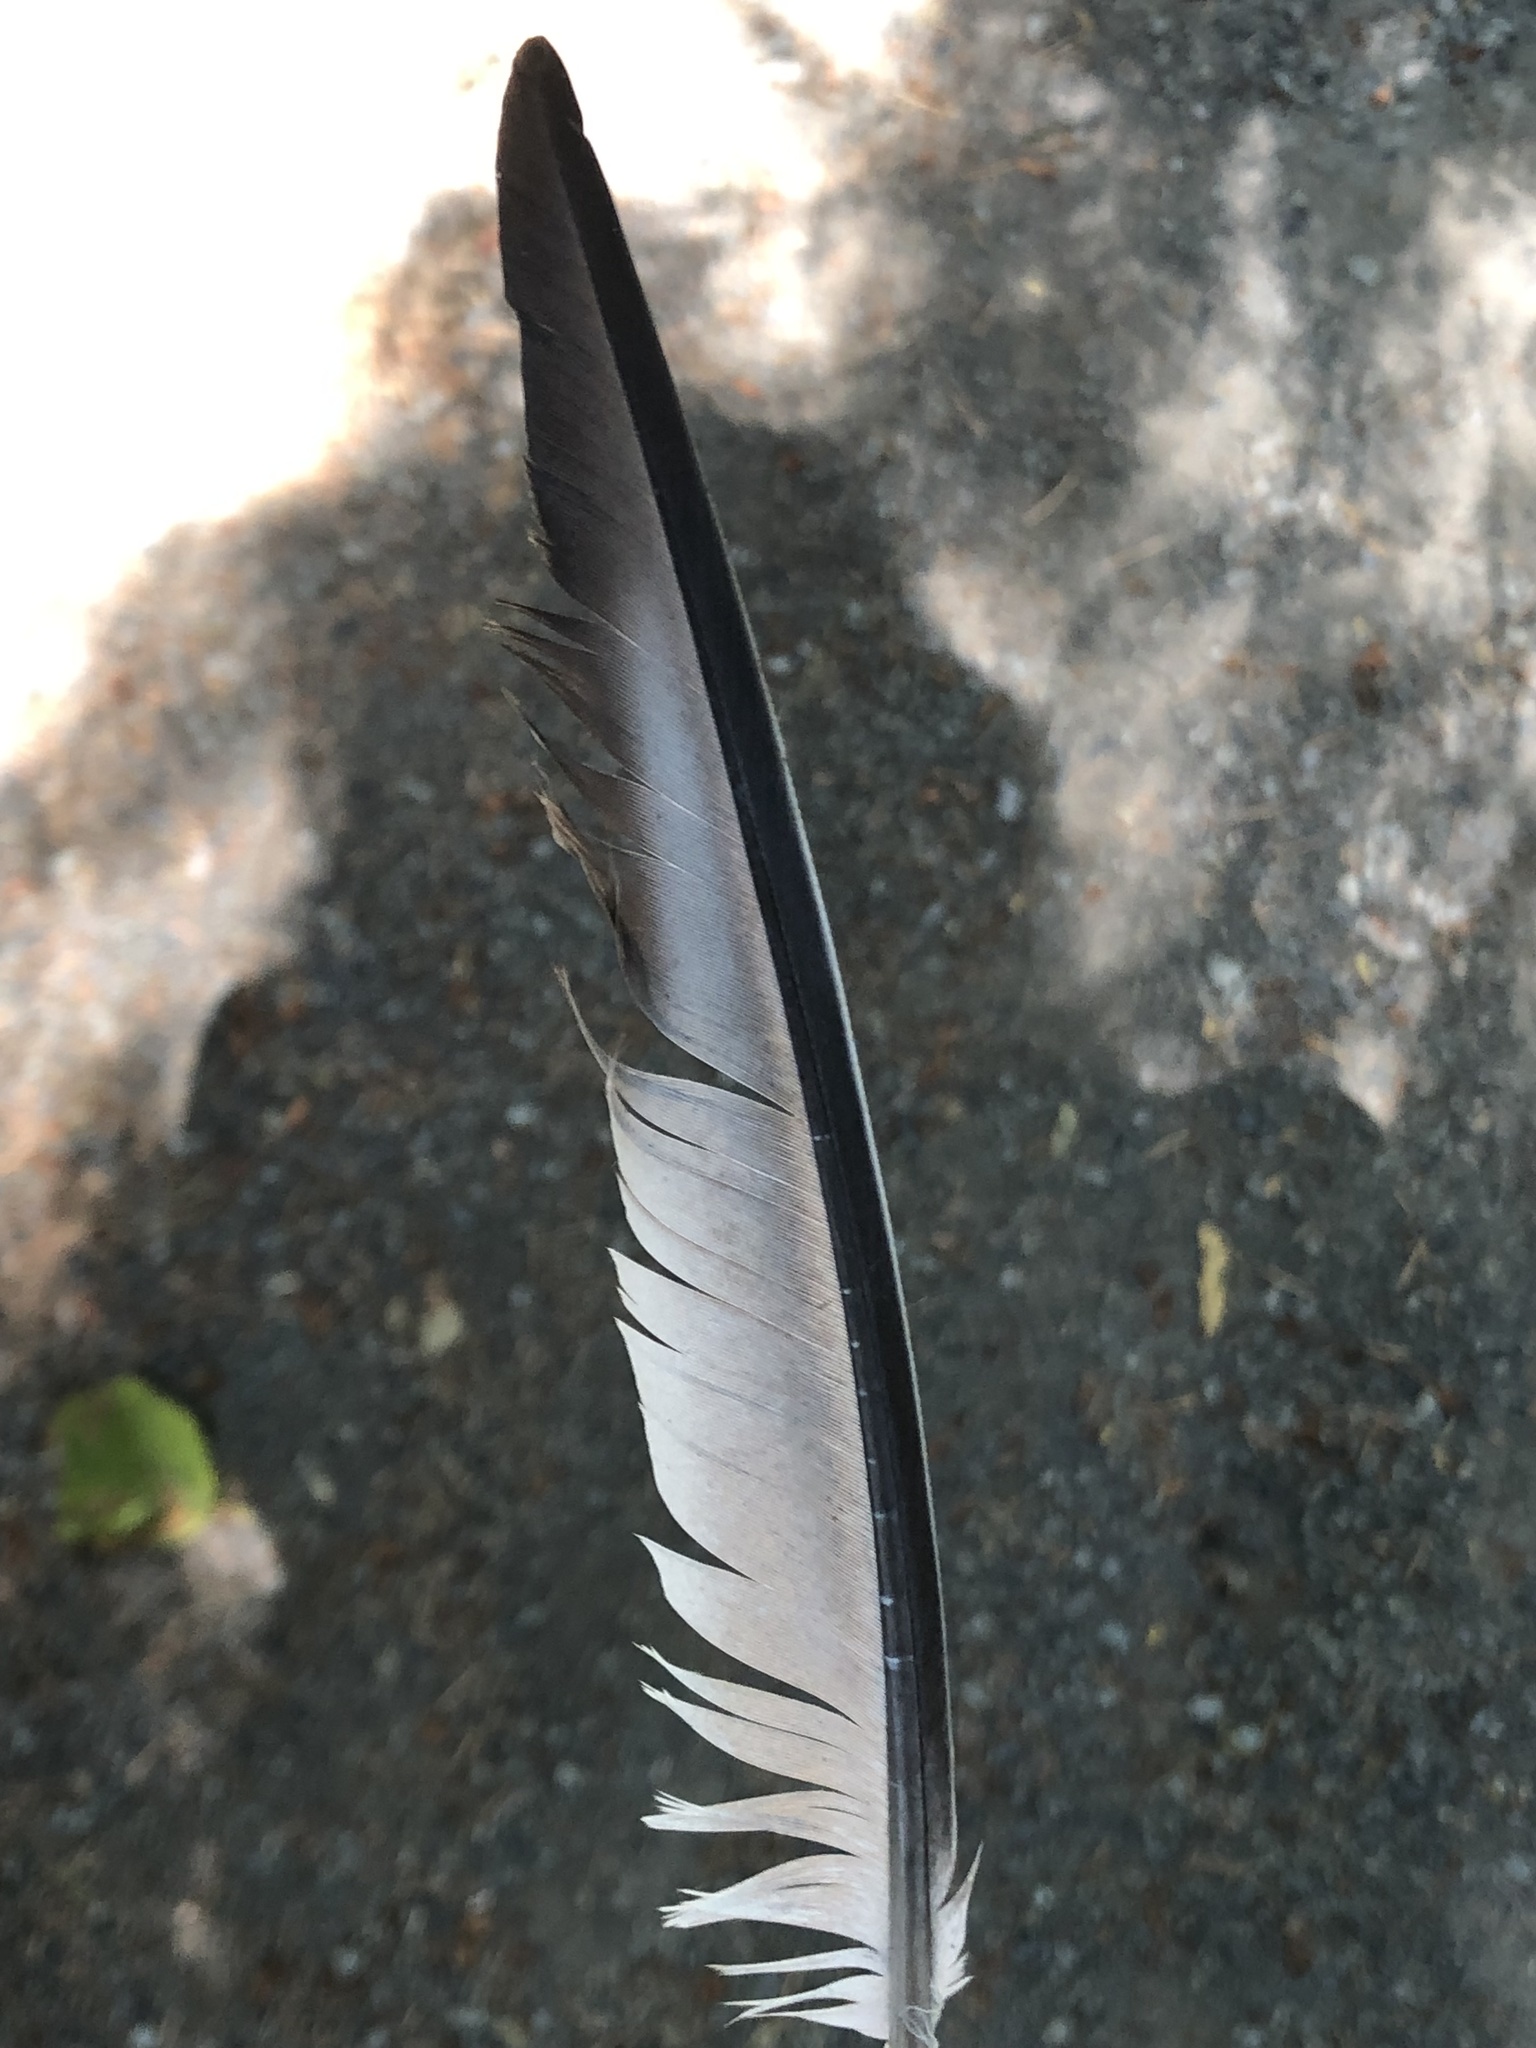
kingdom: Animalia
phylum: Chordata
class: Aves
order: Columbiformes
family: Columbidae
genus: Columba
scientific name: Columba livia
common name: Rock pigeon
